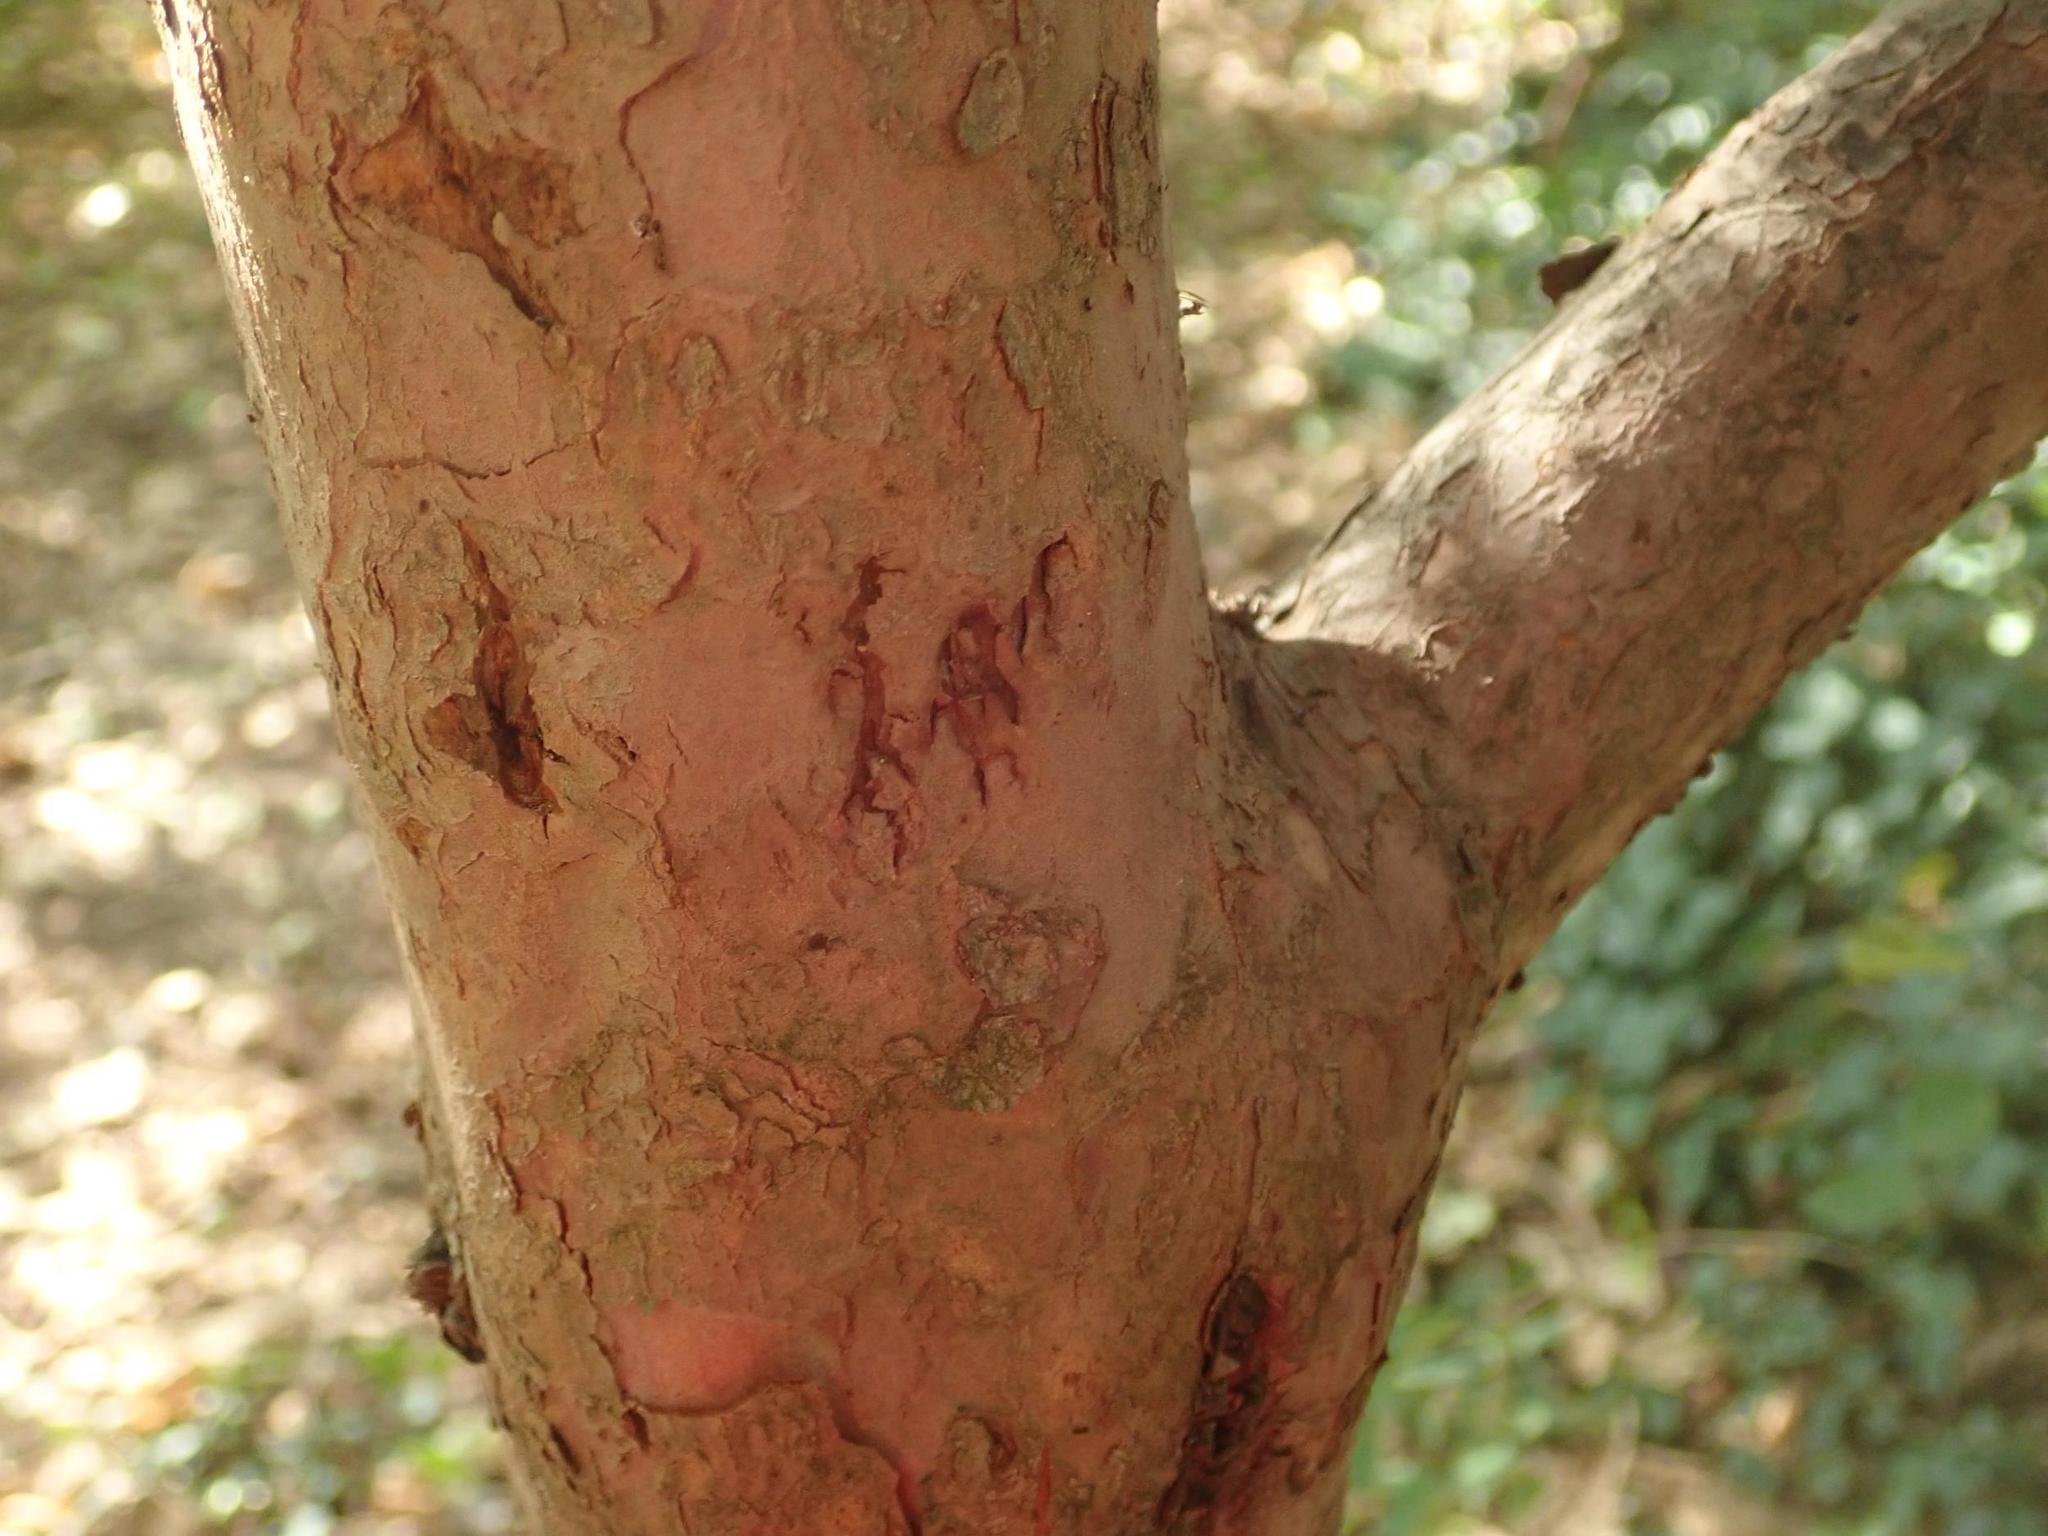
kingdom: Plantae
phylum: Tracheophyta
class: Pinopsida
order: Pinales
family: Taxaceae
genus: Taxus
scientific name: Taxus baccata
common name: Yew
